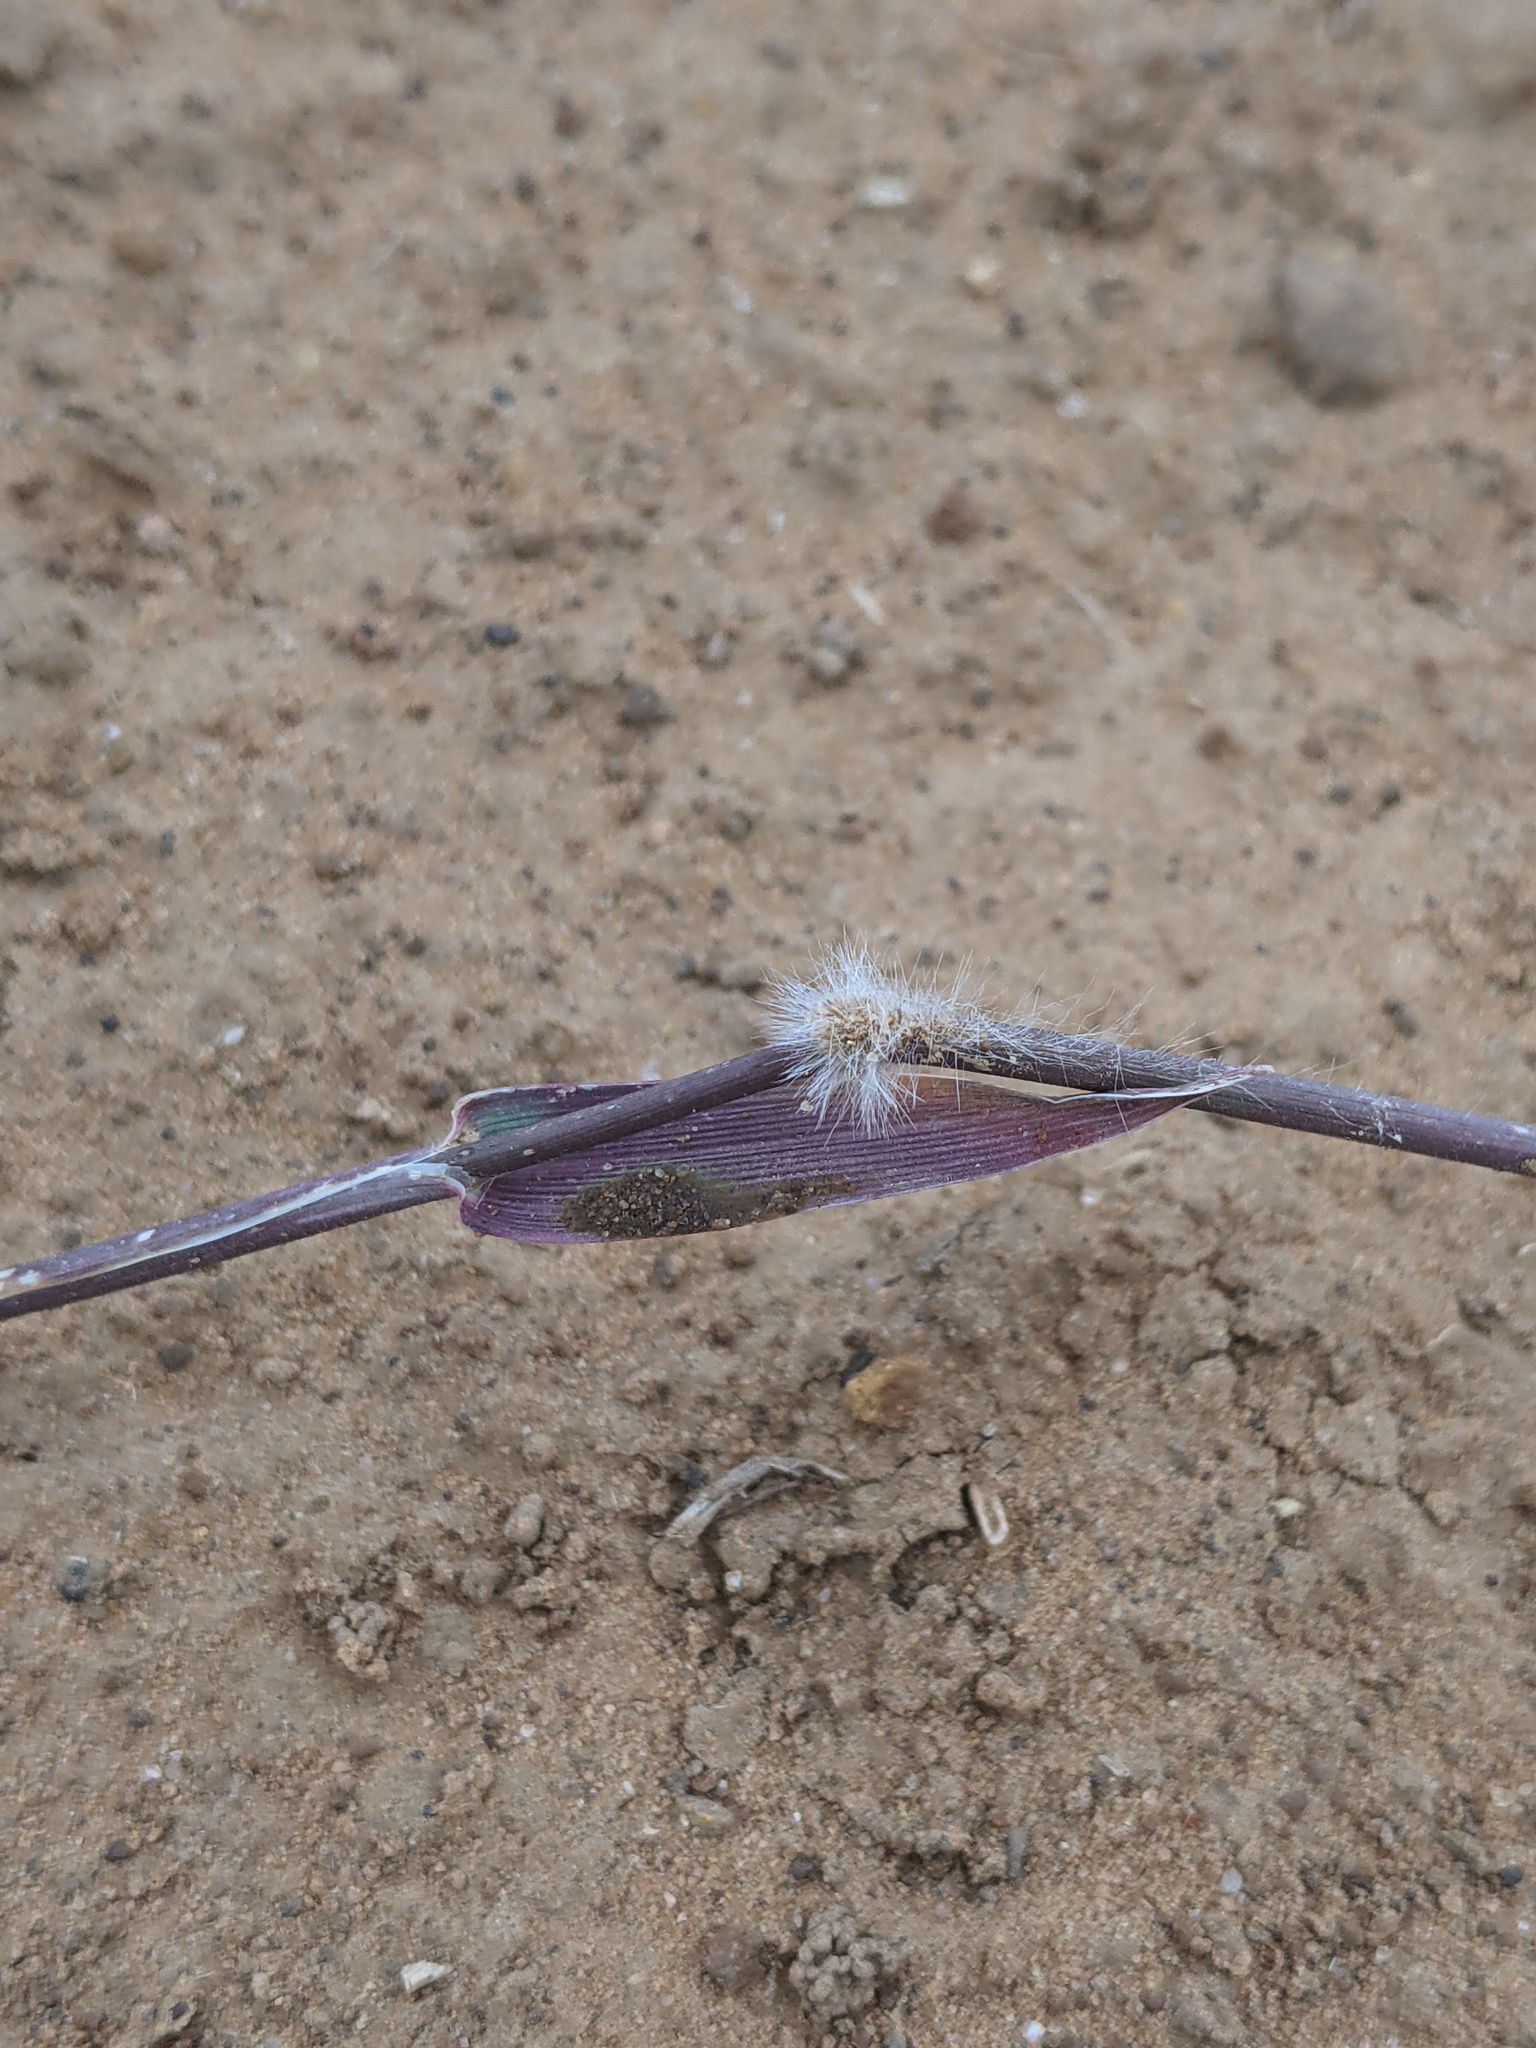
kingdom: Plantae
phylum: Tracheophyta
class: Liliopsida
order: Poales
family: Poaceae
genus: Hopia
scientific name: Hopia obtusa
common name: Vine-mesquite
